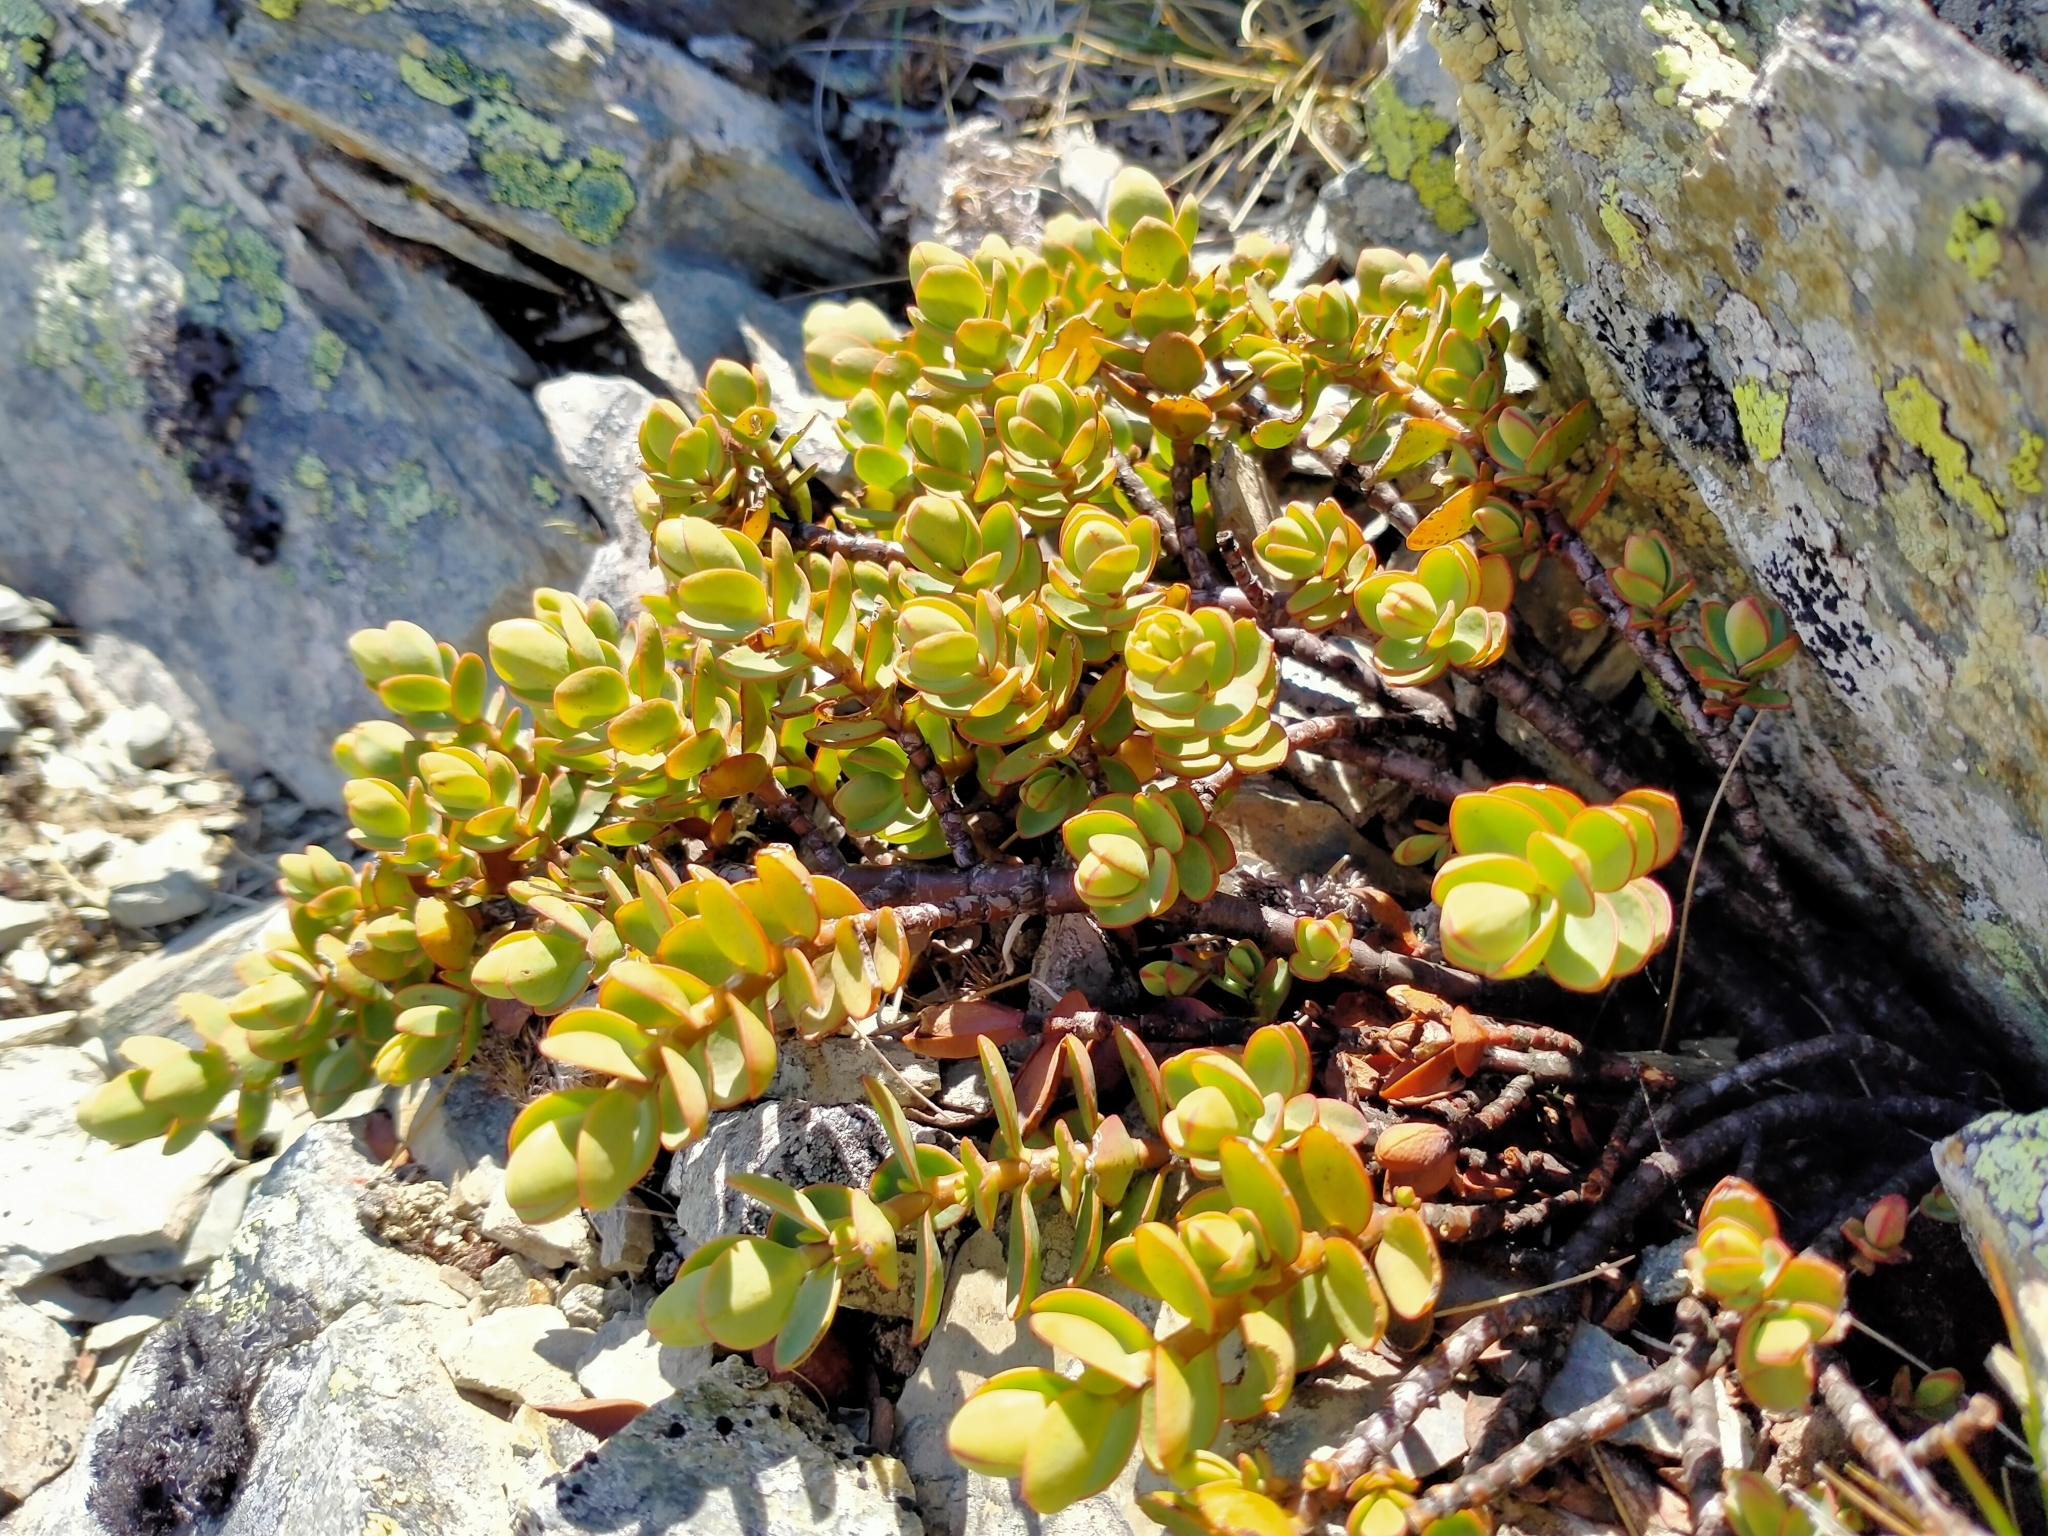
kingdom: Plantae
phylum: Tracheophyta
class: Magnoliopsida
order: Lamiales
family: Plantaginaceae
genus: Veronica
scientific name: Veronica pinguifolia
